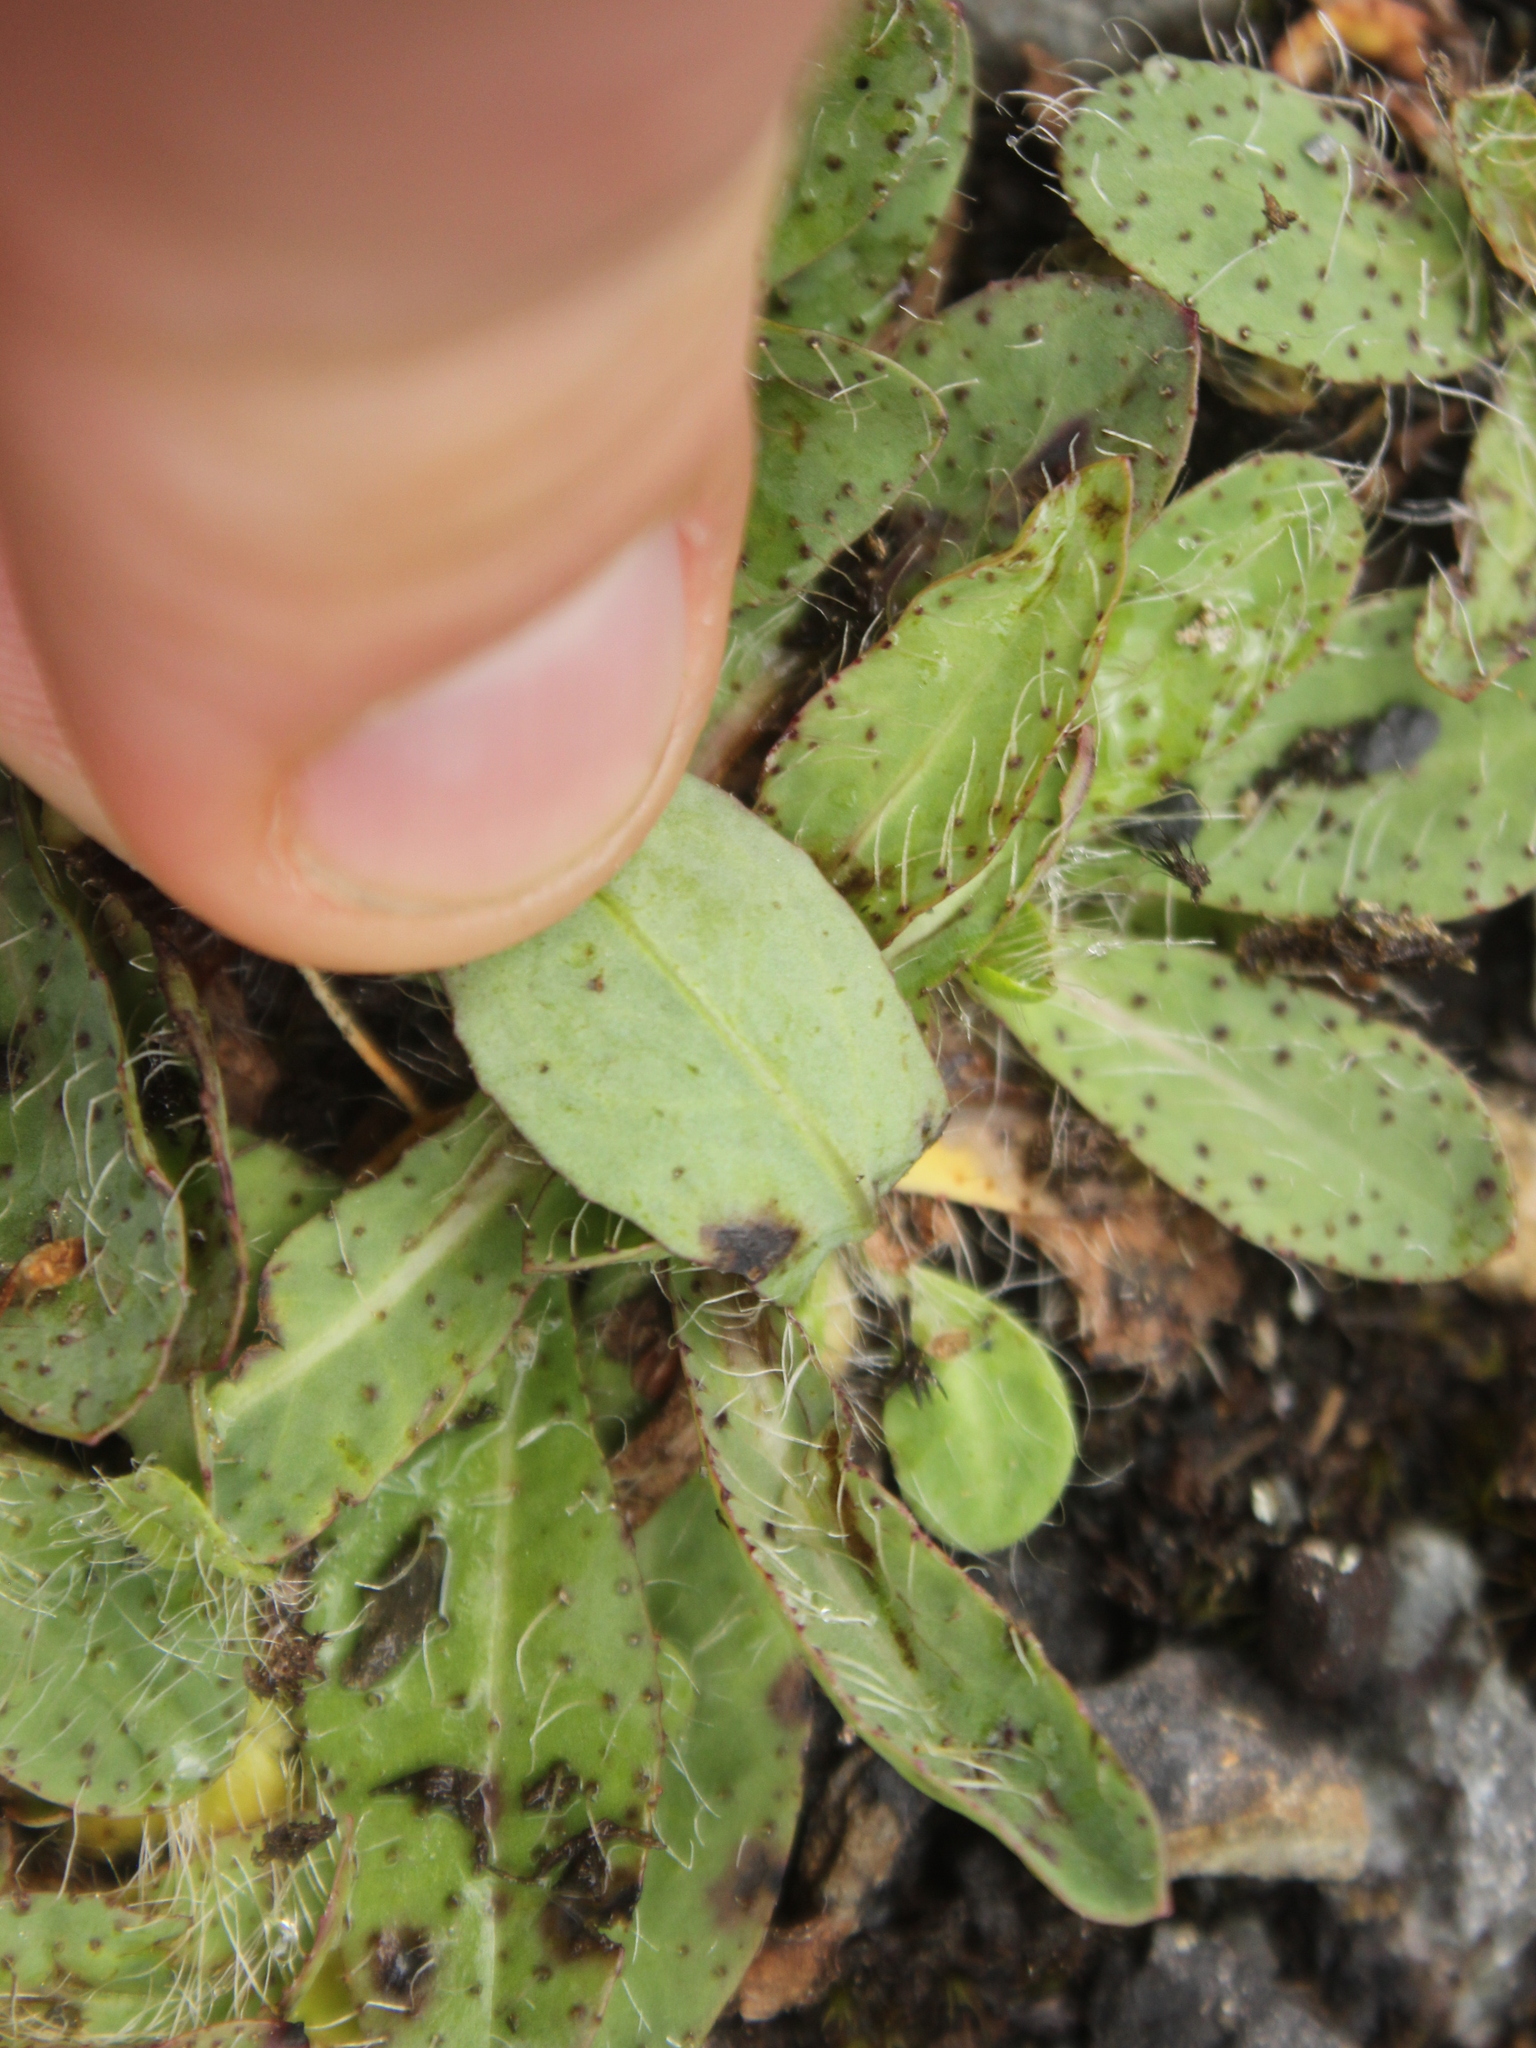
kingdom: Plantae
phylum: Tracheophyta
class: Magnoliopsida
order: Asterales
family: Asteraceae
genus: Pilosella
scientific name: Pilosella piloselloides
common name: Glaucous king-devil
